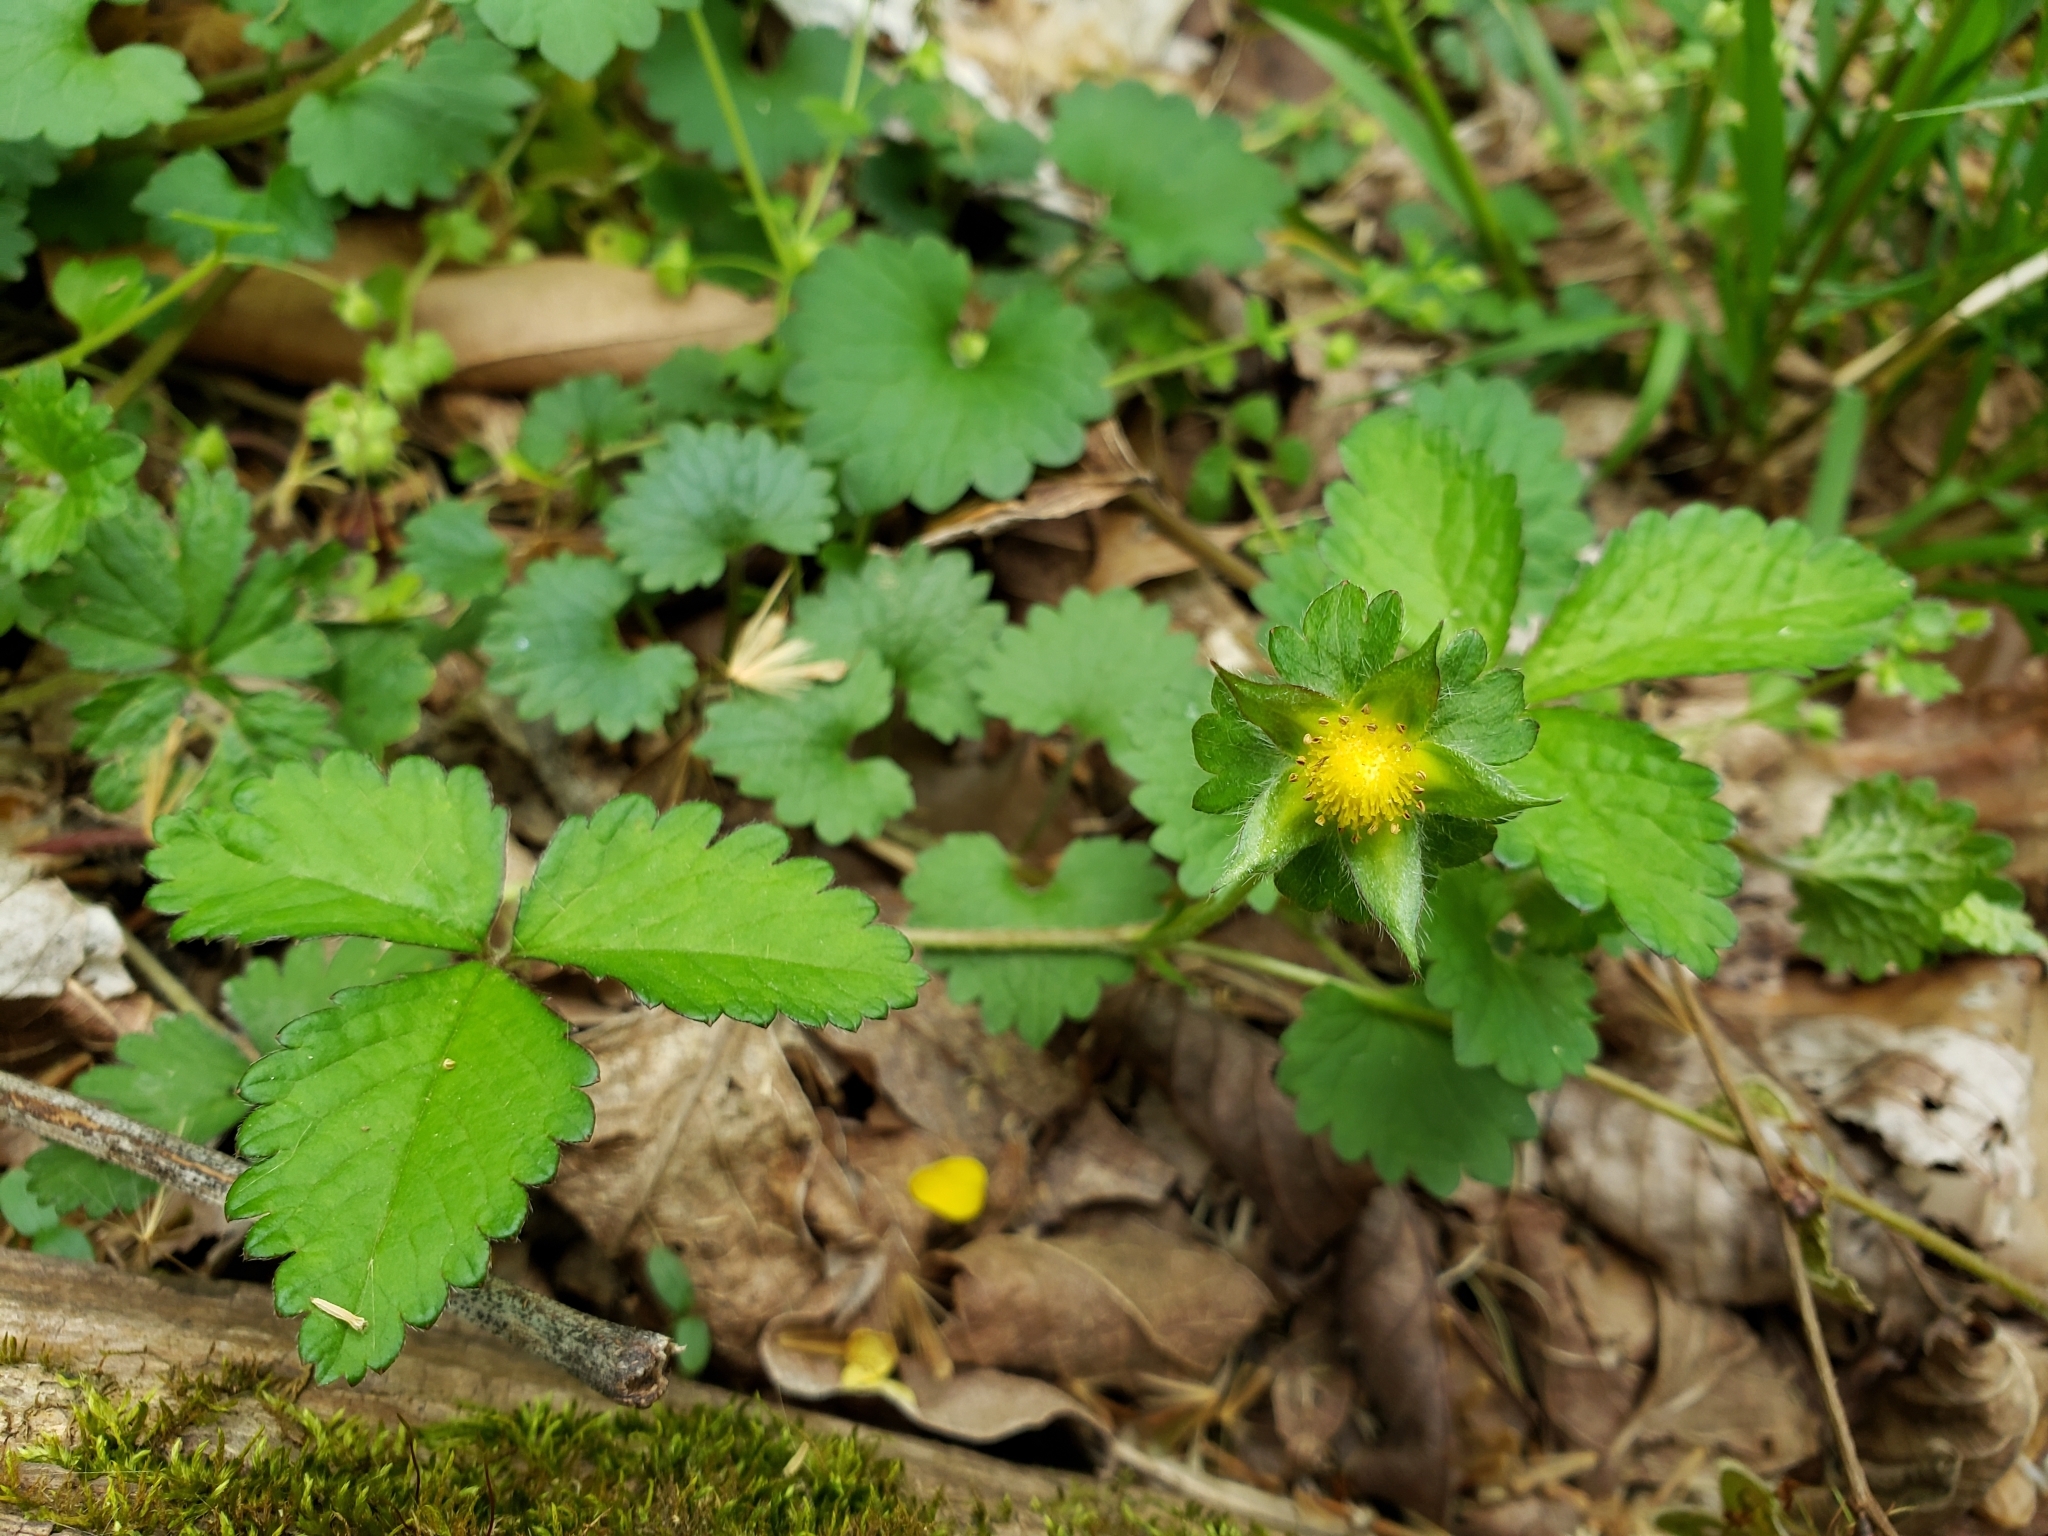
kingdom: Plantae
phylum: Tracheophyta
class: Magnoliopsida
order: Rosales
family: Rosaceae
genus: Potentilla
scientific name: Potentilla indica
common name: Yellow-flowered strawberry
